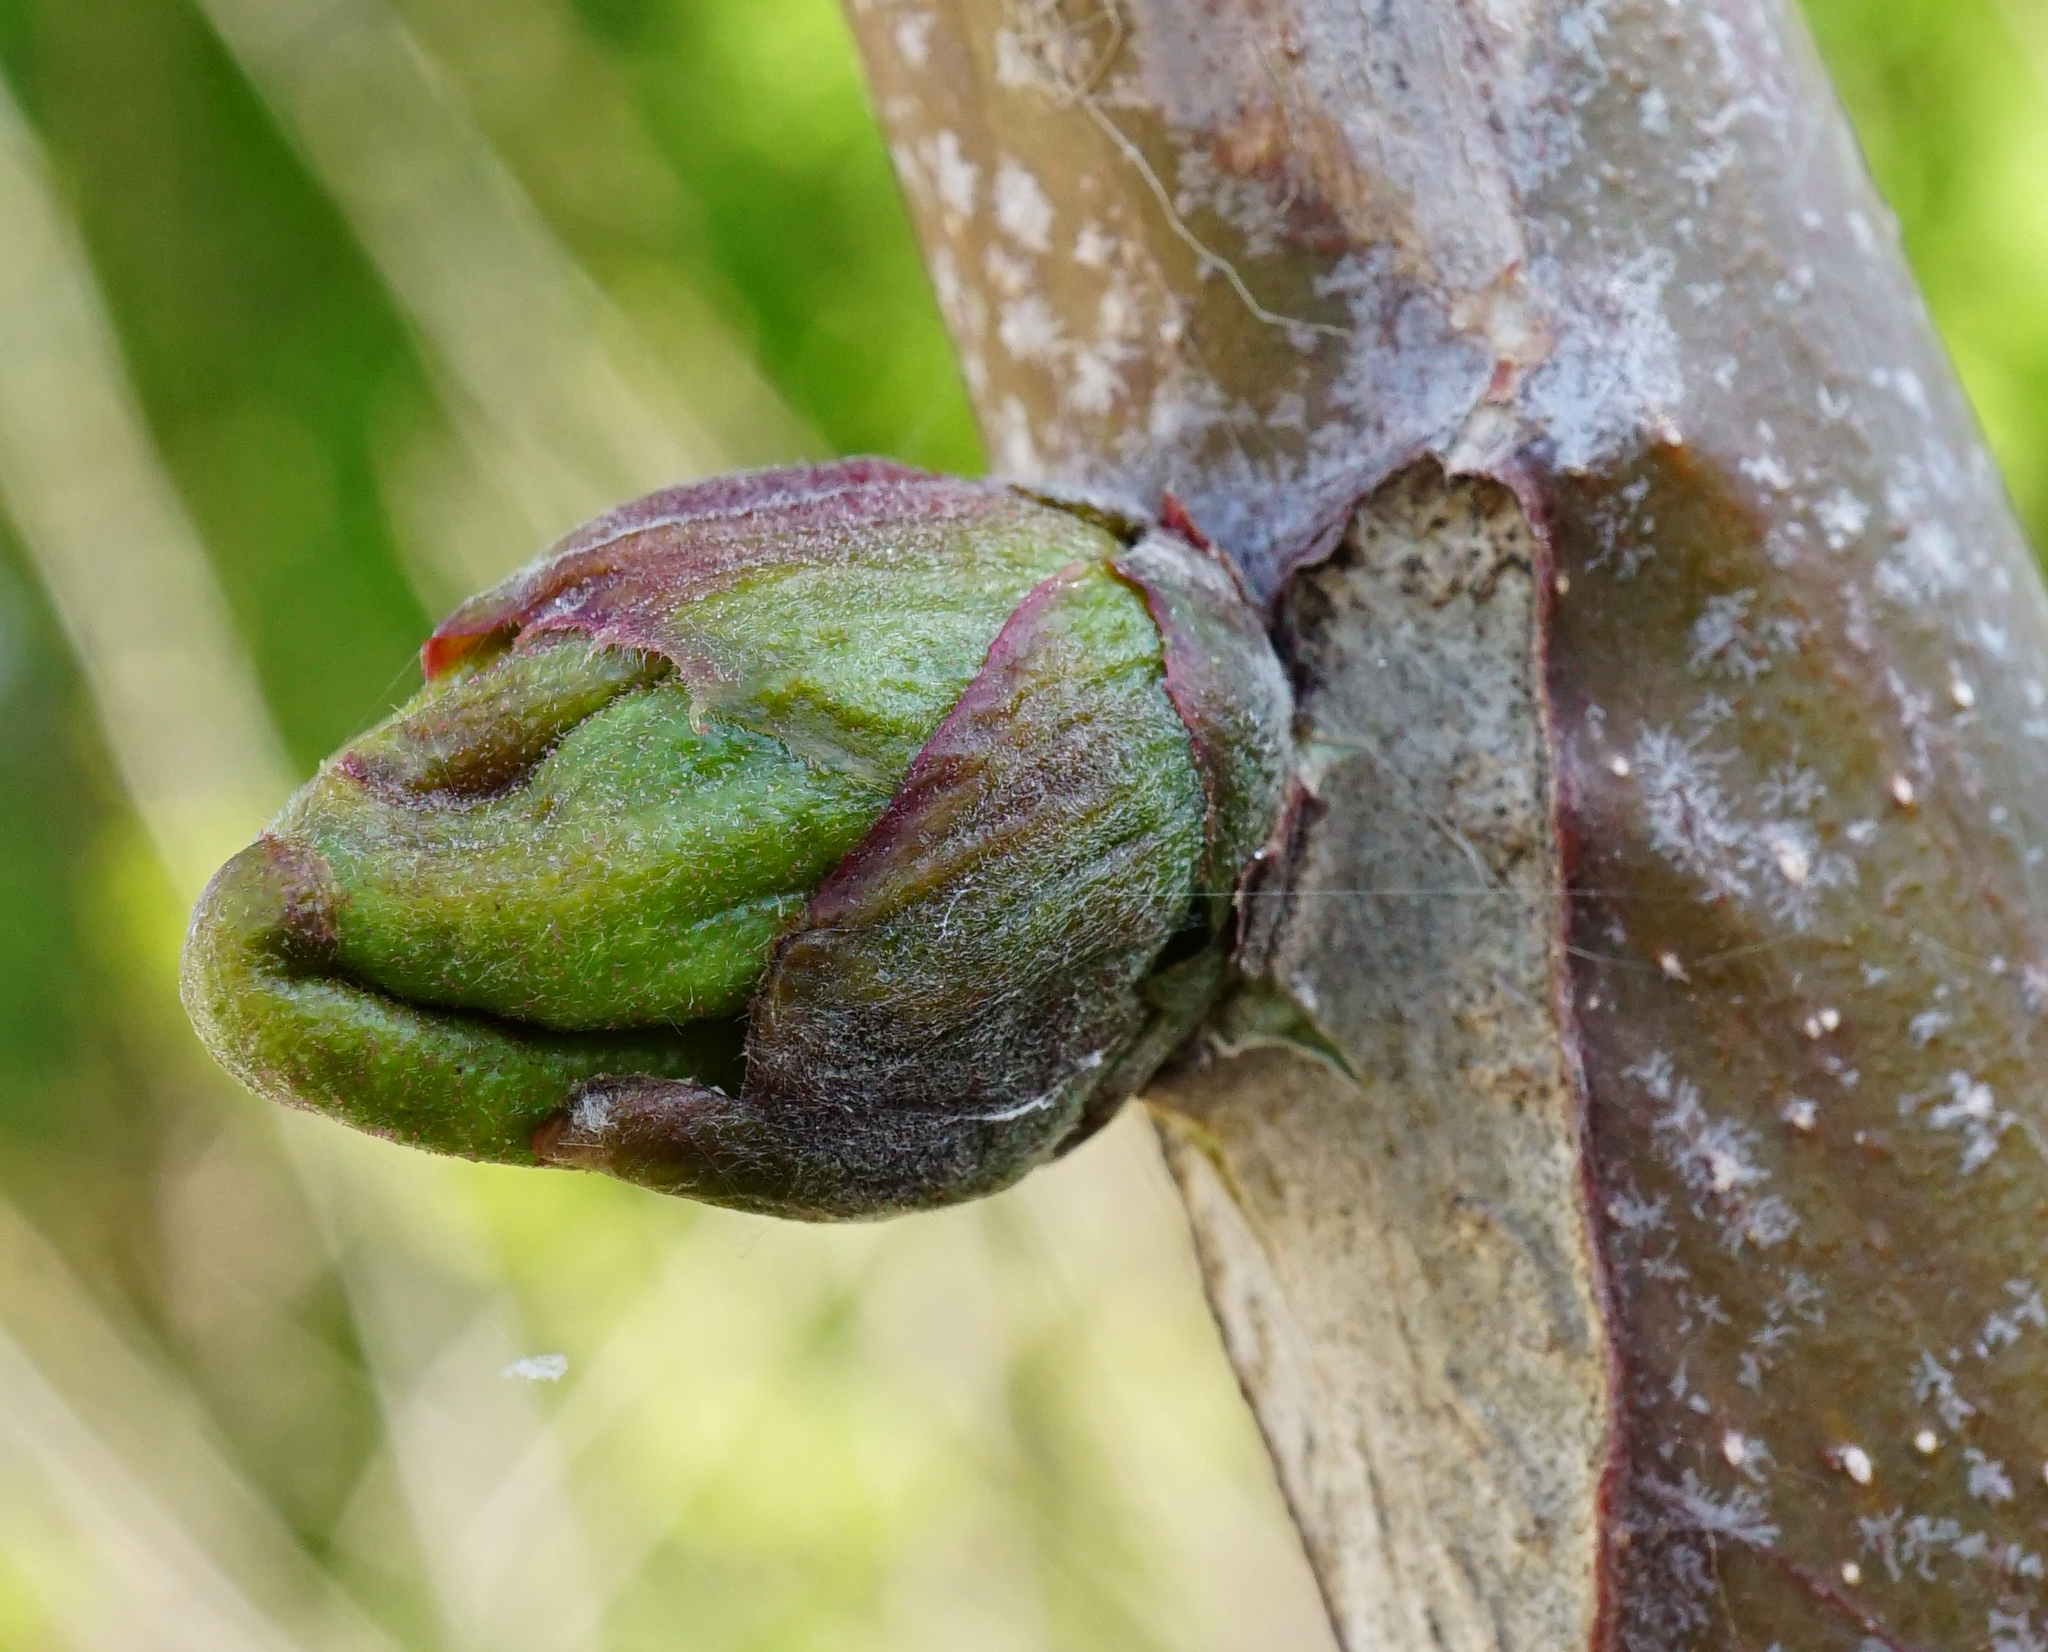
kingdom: Plantae
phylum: Tracheophyta
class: Magnoliopsida
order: Sapindales
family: Simaroubaceae
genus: Ailanthus
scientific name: Ailanthus altissima
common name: Tree-of-heaven
